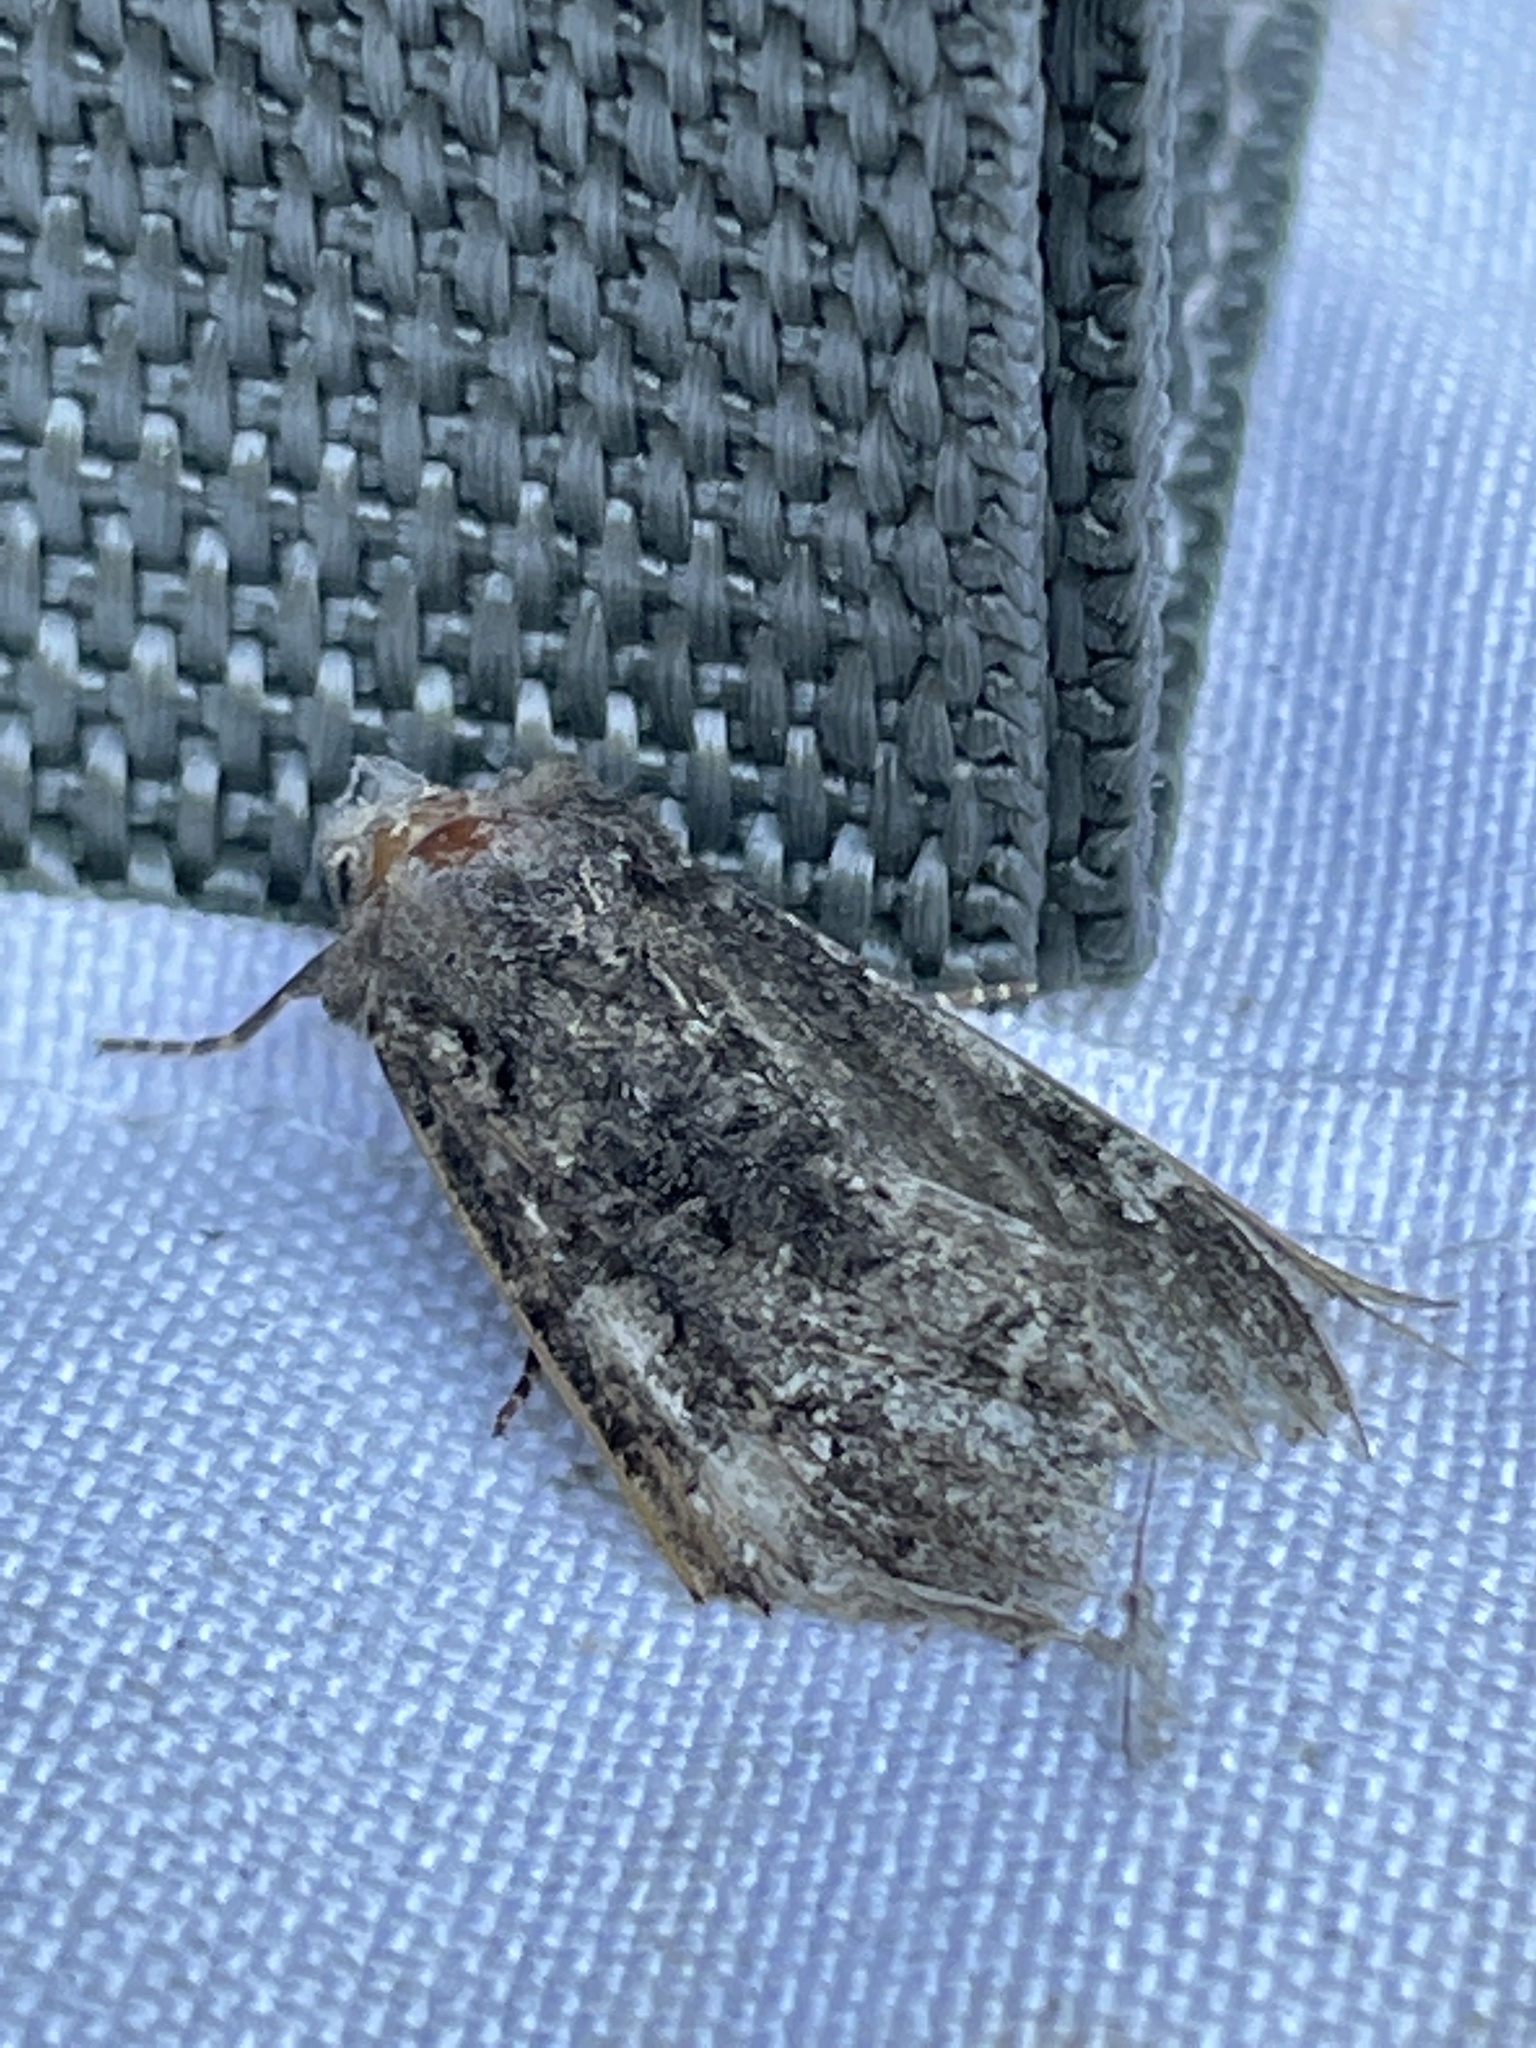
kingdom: Animalia
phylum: Arthropoda
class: Insecta
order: Lepidoptera
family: Noctuidae
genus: Mamestra
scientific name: Mamestra brassicae
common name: Cabbage moth
